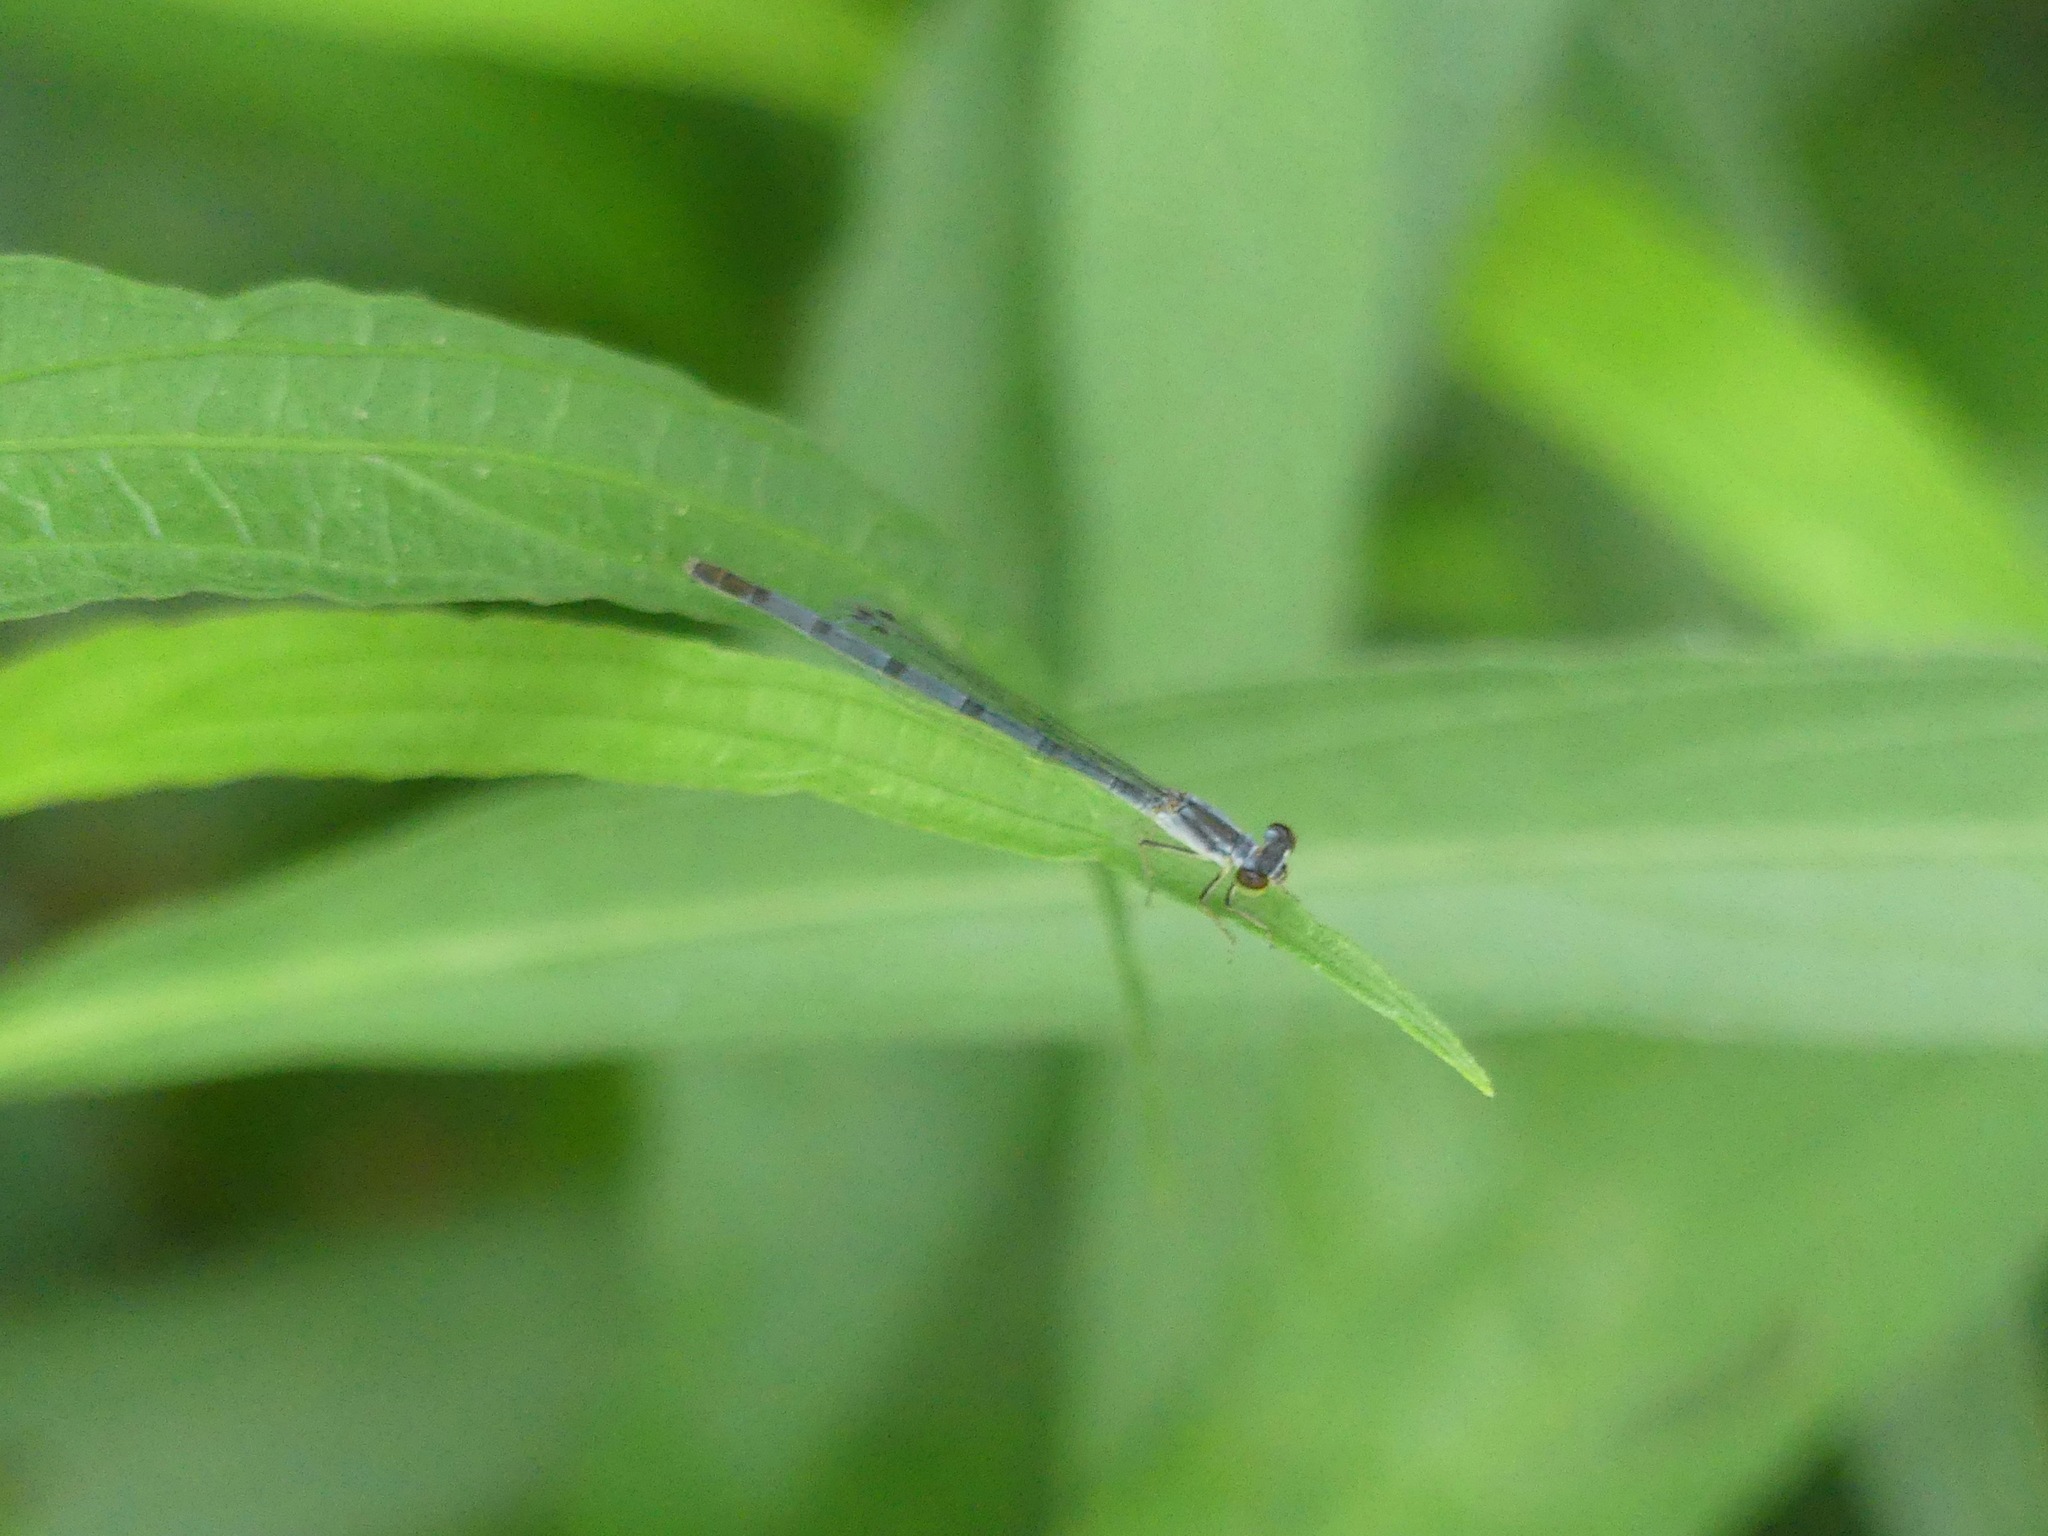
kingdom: Animalia
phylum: Arthropoda
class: Insecta
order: Odonata
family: Coenagrionidae
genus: Ischnura
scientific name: Ischnura posita
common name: Fragile forktail
